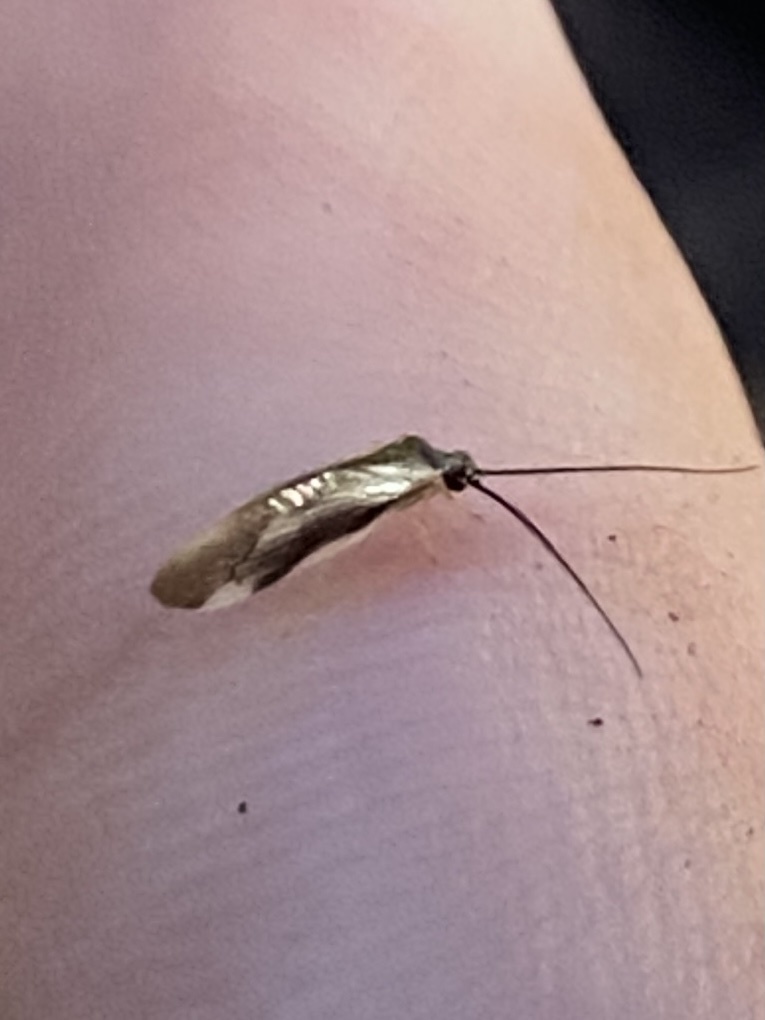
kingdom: Animalia
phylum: Arthropoda
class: Insecta
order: Neuroptera
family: Sisyridae
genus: Climacia
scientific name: Climacia areolaris
